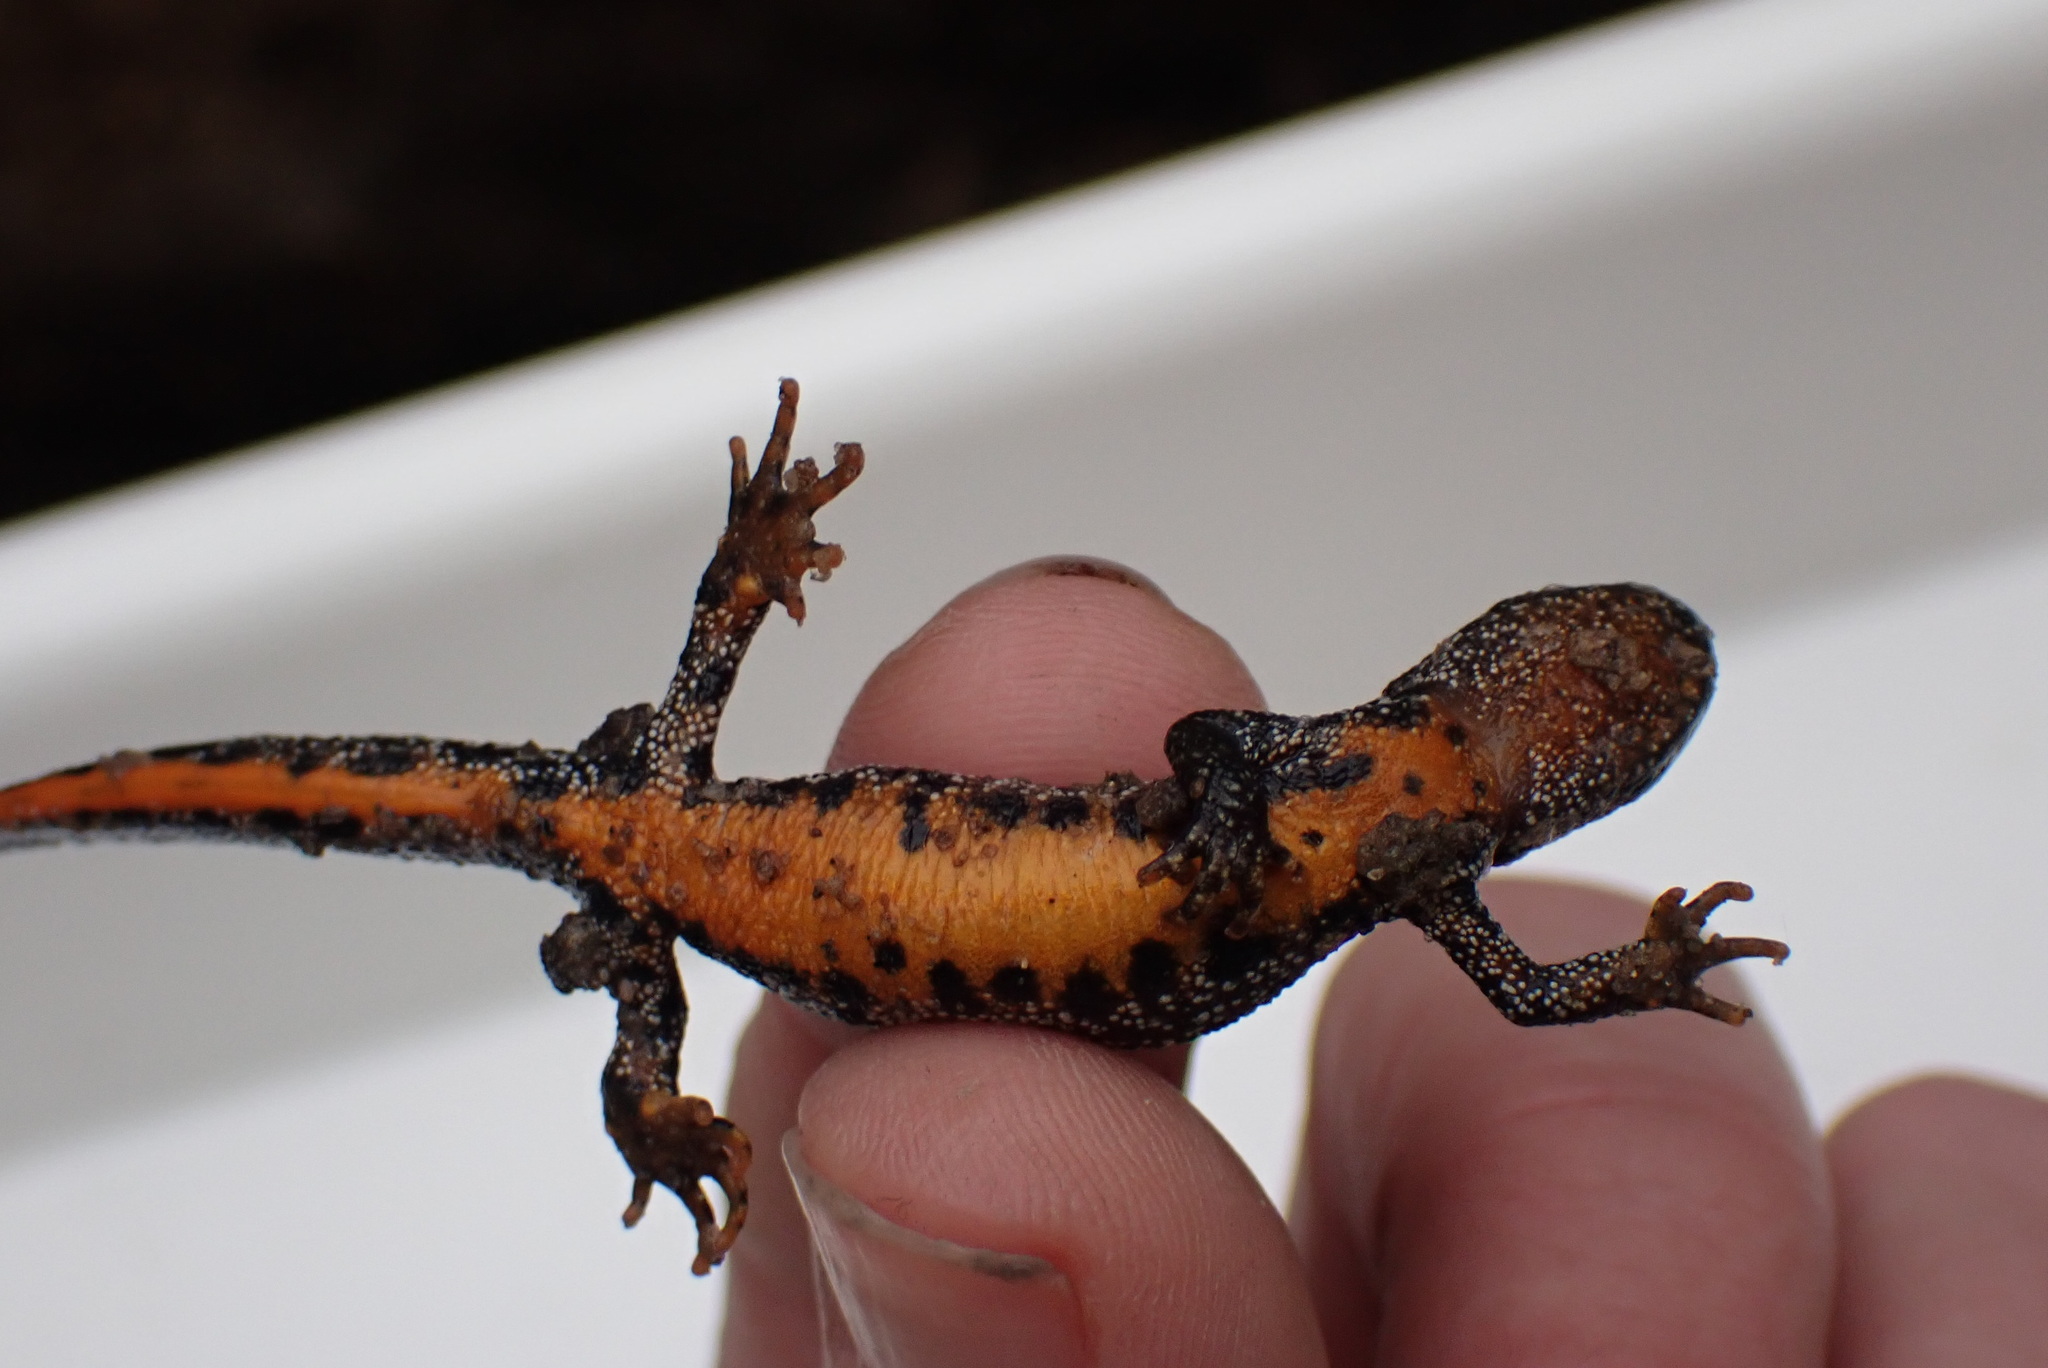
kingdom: Animalia
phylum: Chordata
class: Amphibia
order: Caudata
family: Salamandridae
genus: Triturus
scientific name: Triturus cristatus
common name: Crested newt
